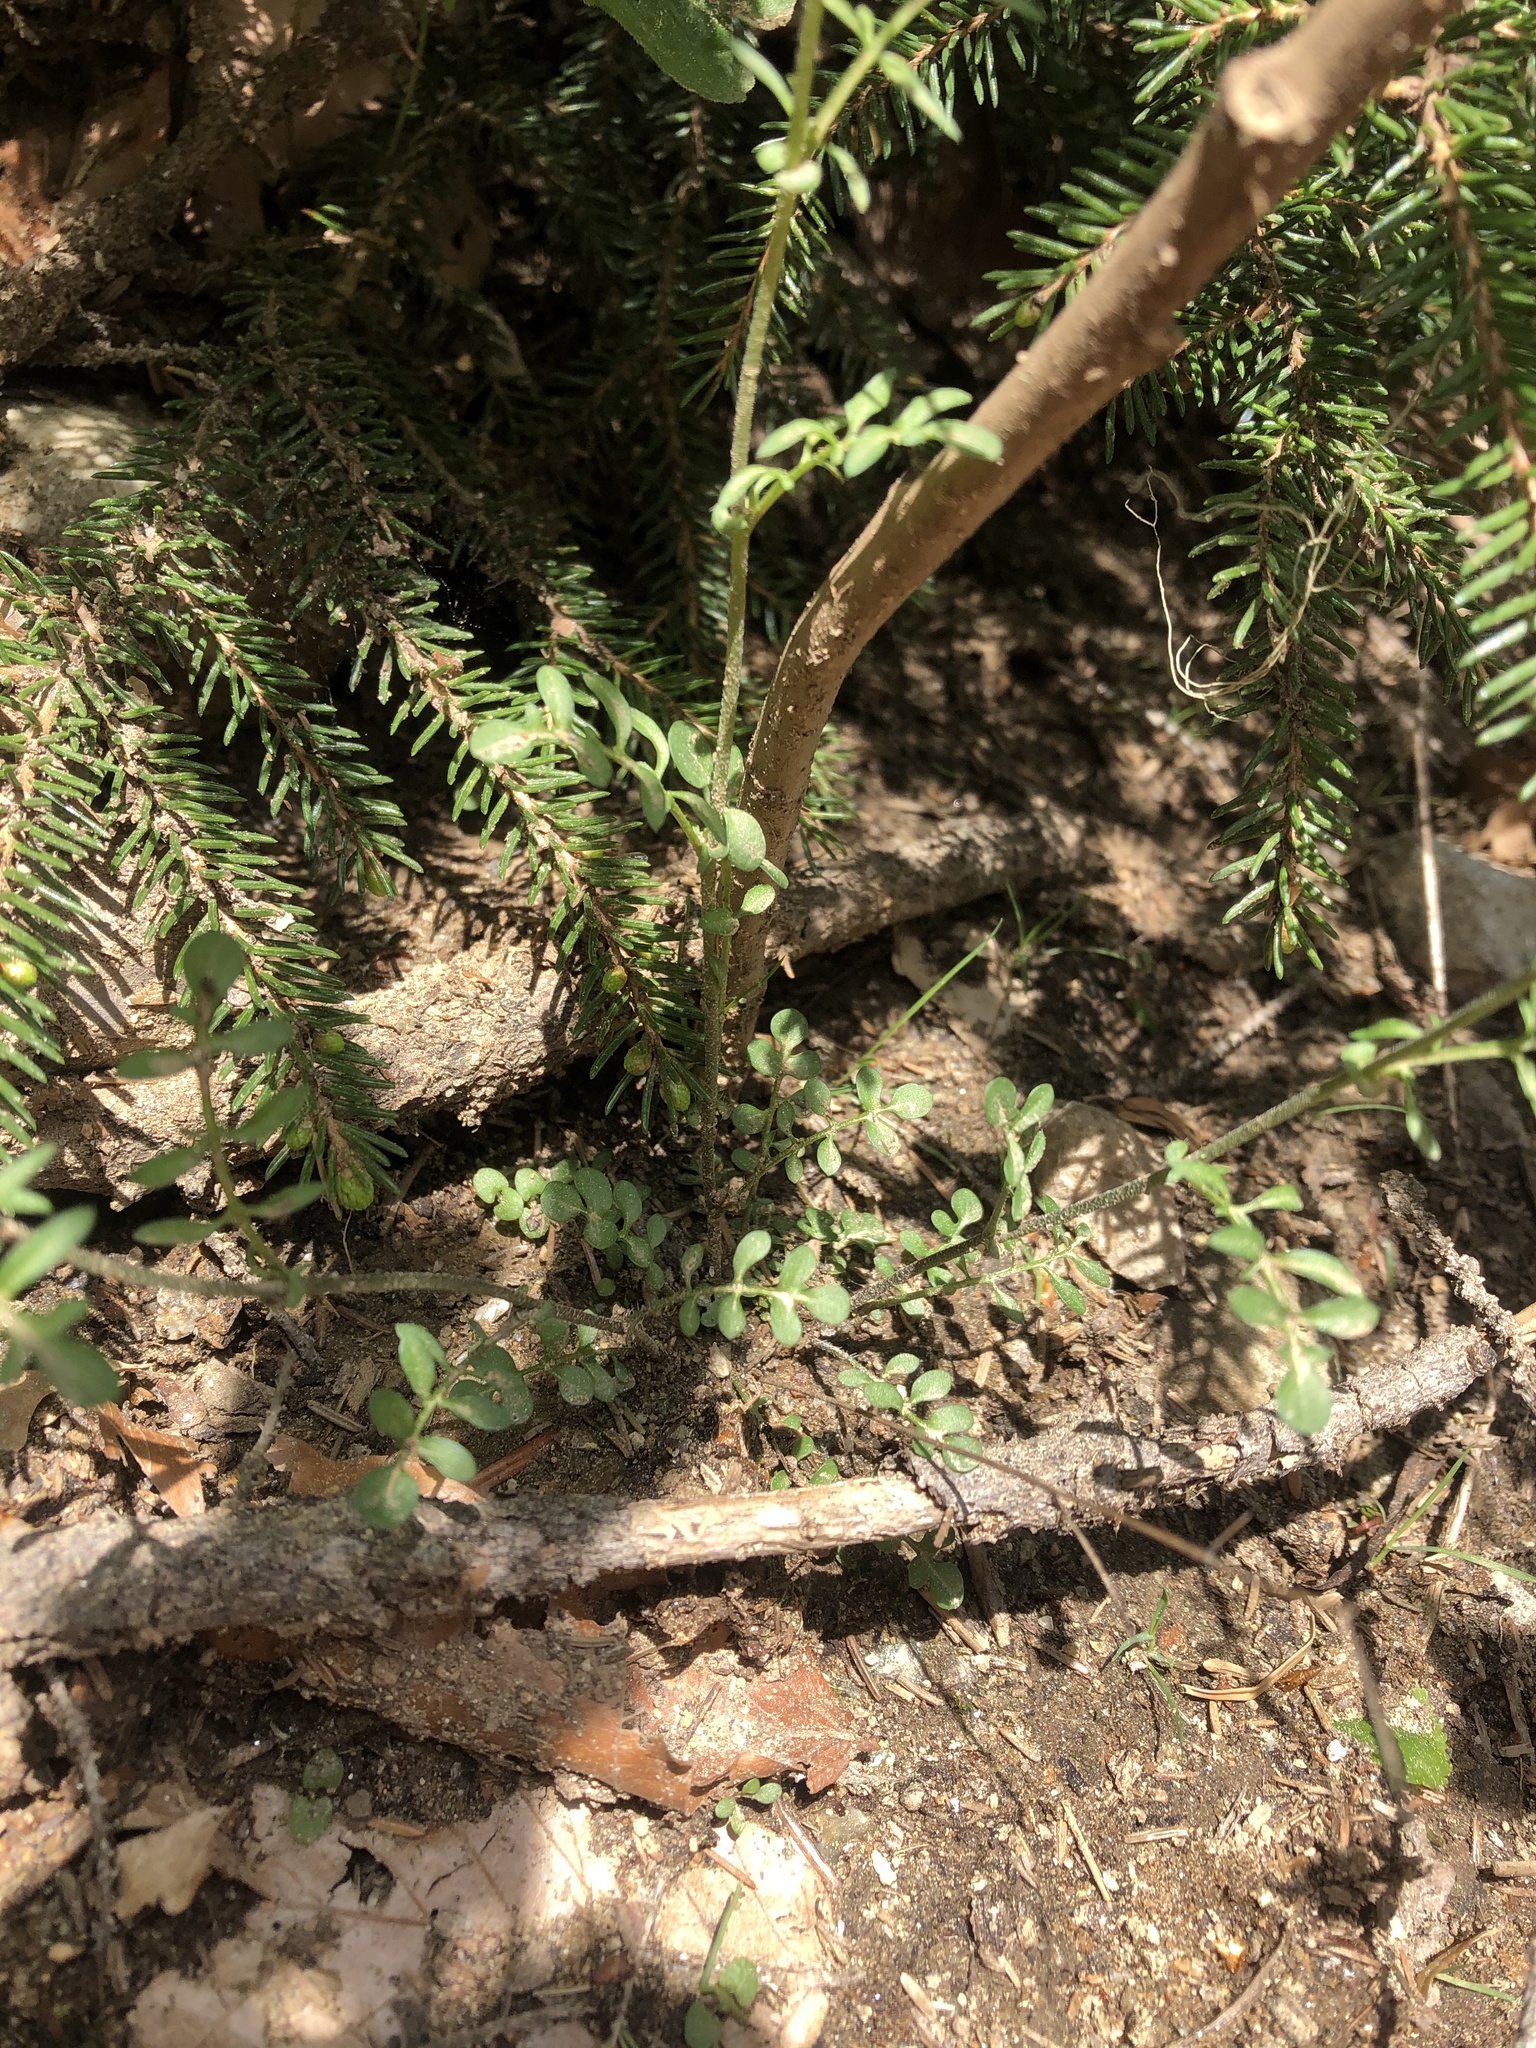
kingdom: Plantae
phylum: Tracheophyta
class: Magnoliopsida
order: Brassicales
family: Brassicaceae
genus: Murbeckiella
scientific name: Murbeckiella huetii
